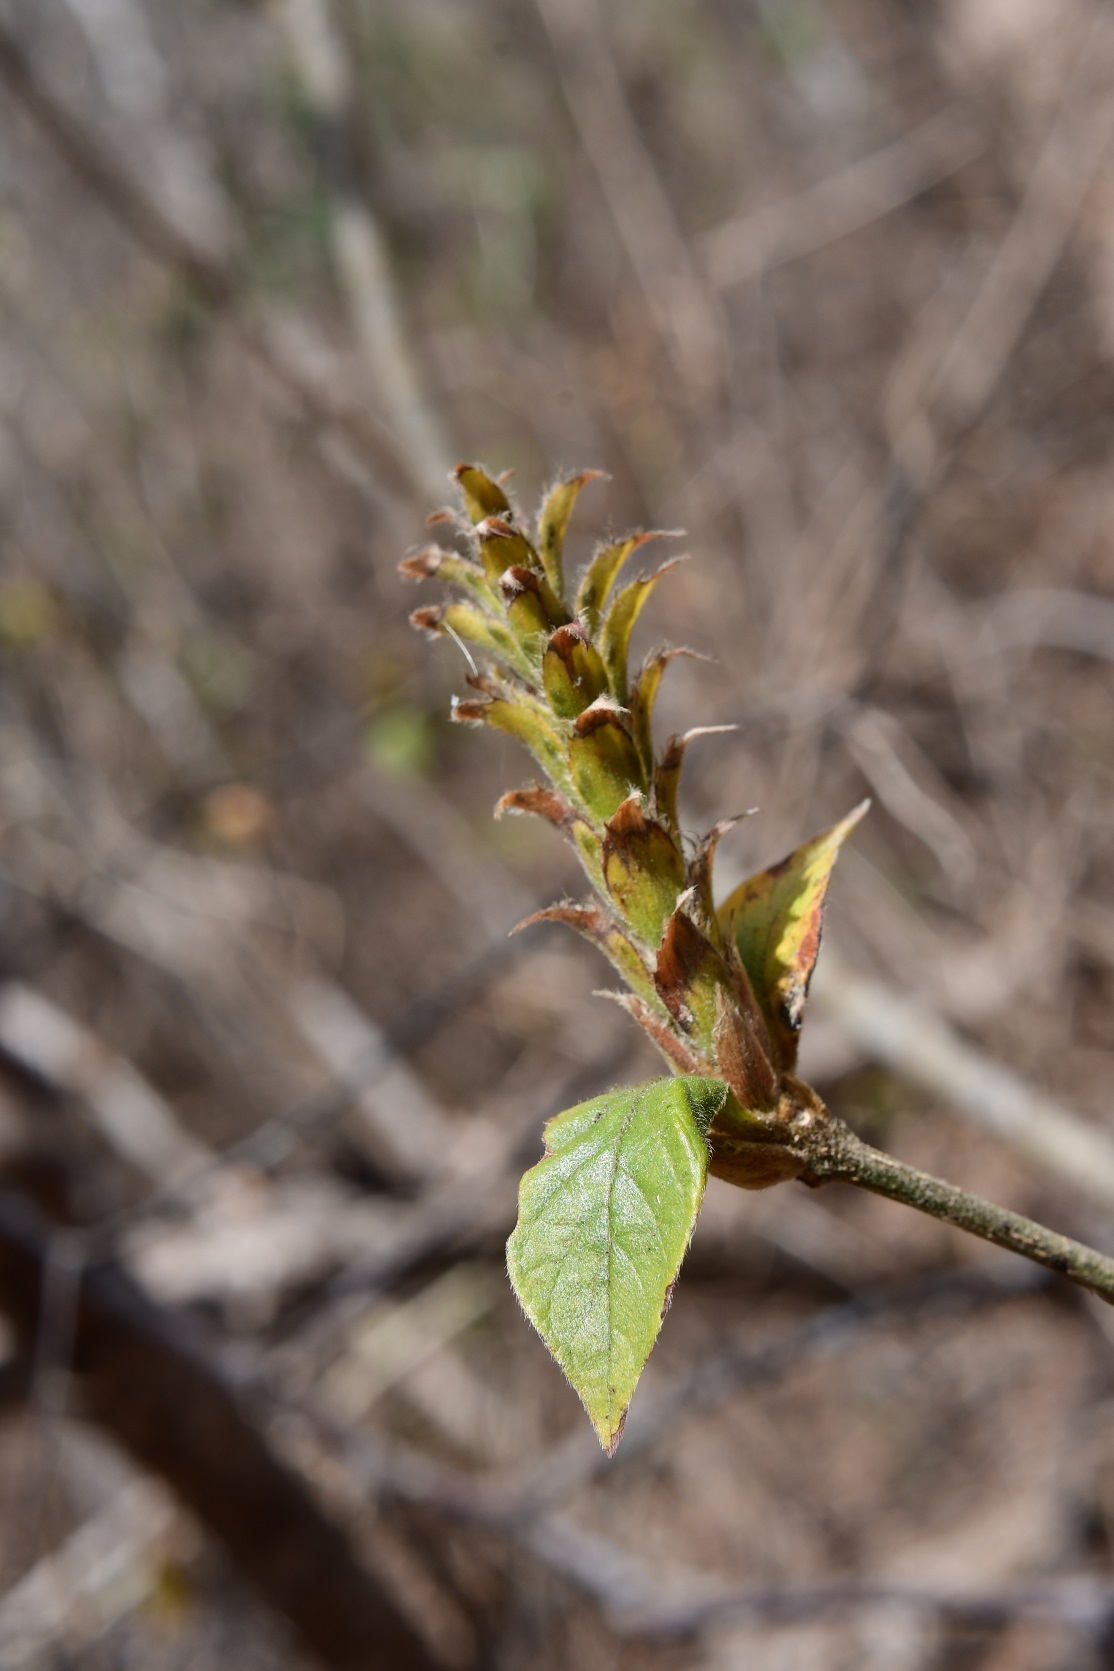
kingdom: Plantae
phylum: Tracheophyta
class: Magnoliopsida
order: Lamiales
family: Acanthaceae
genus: Aphelandra
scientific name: Aphelandra scabra
